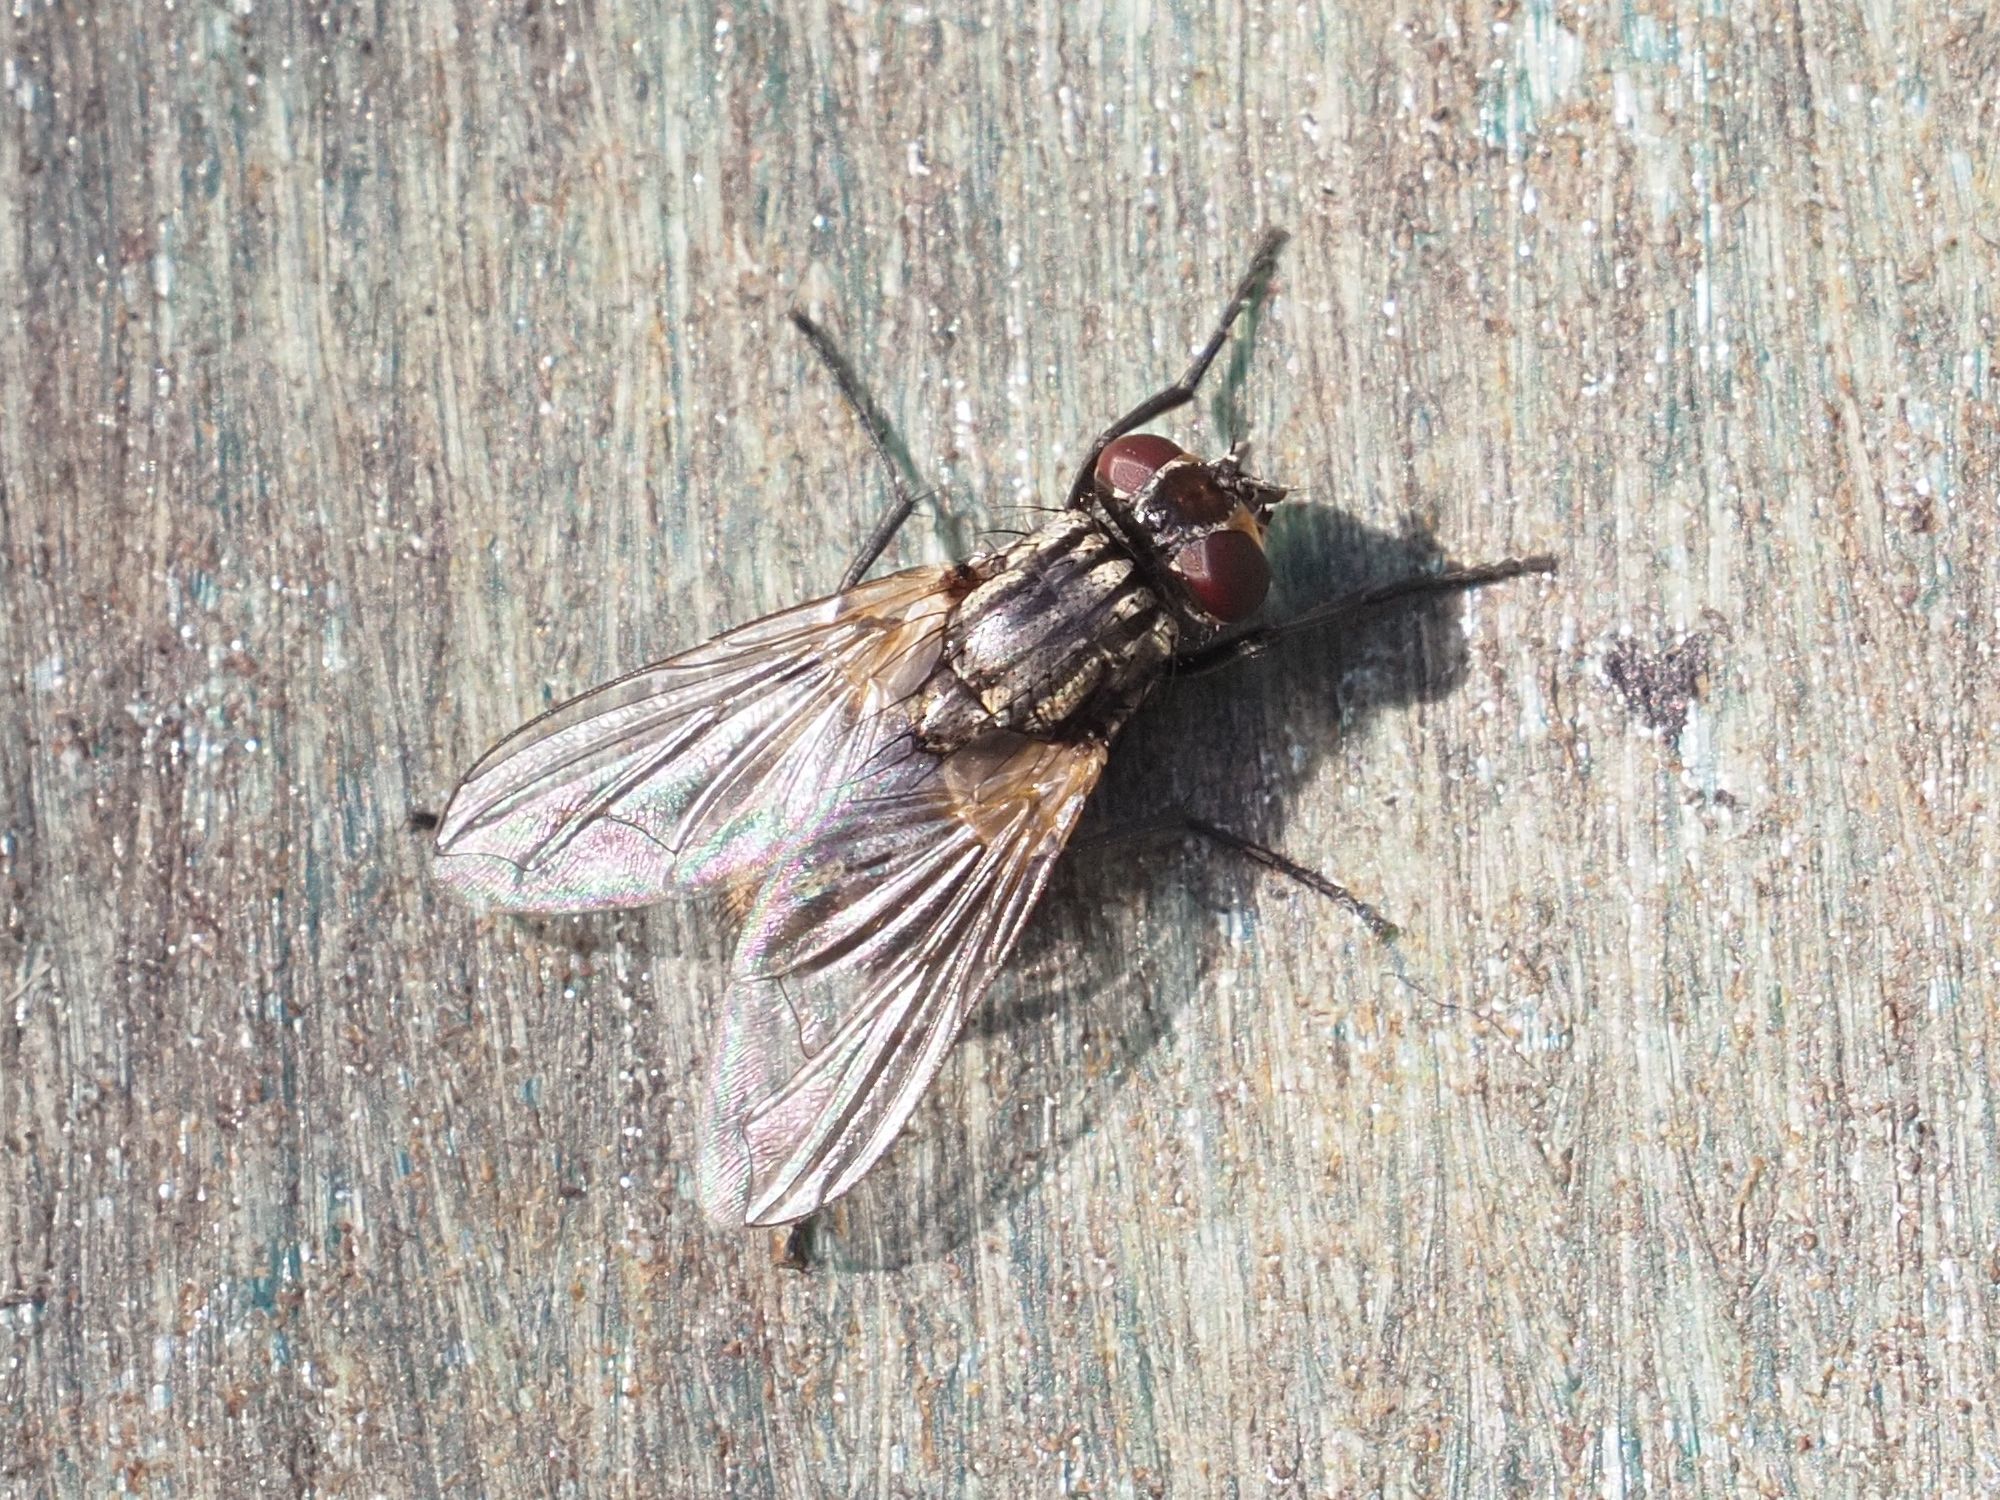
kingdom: Animalia
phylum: Arthropoda
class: Insecta
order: Diptera
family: Muscidae
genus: Musca
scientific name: Musca domestica
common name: House fly
